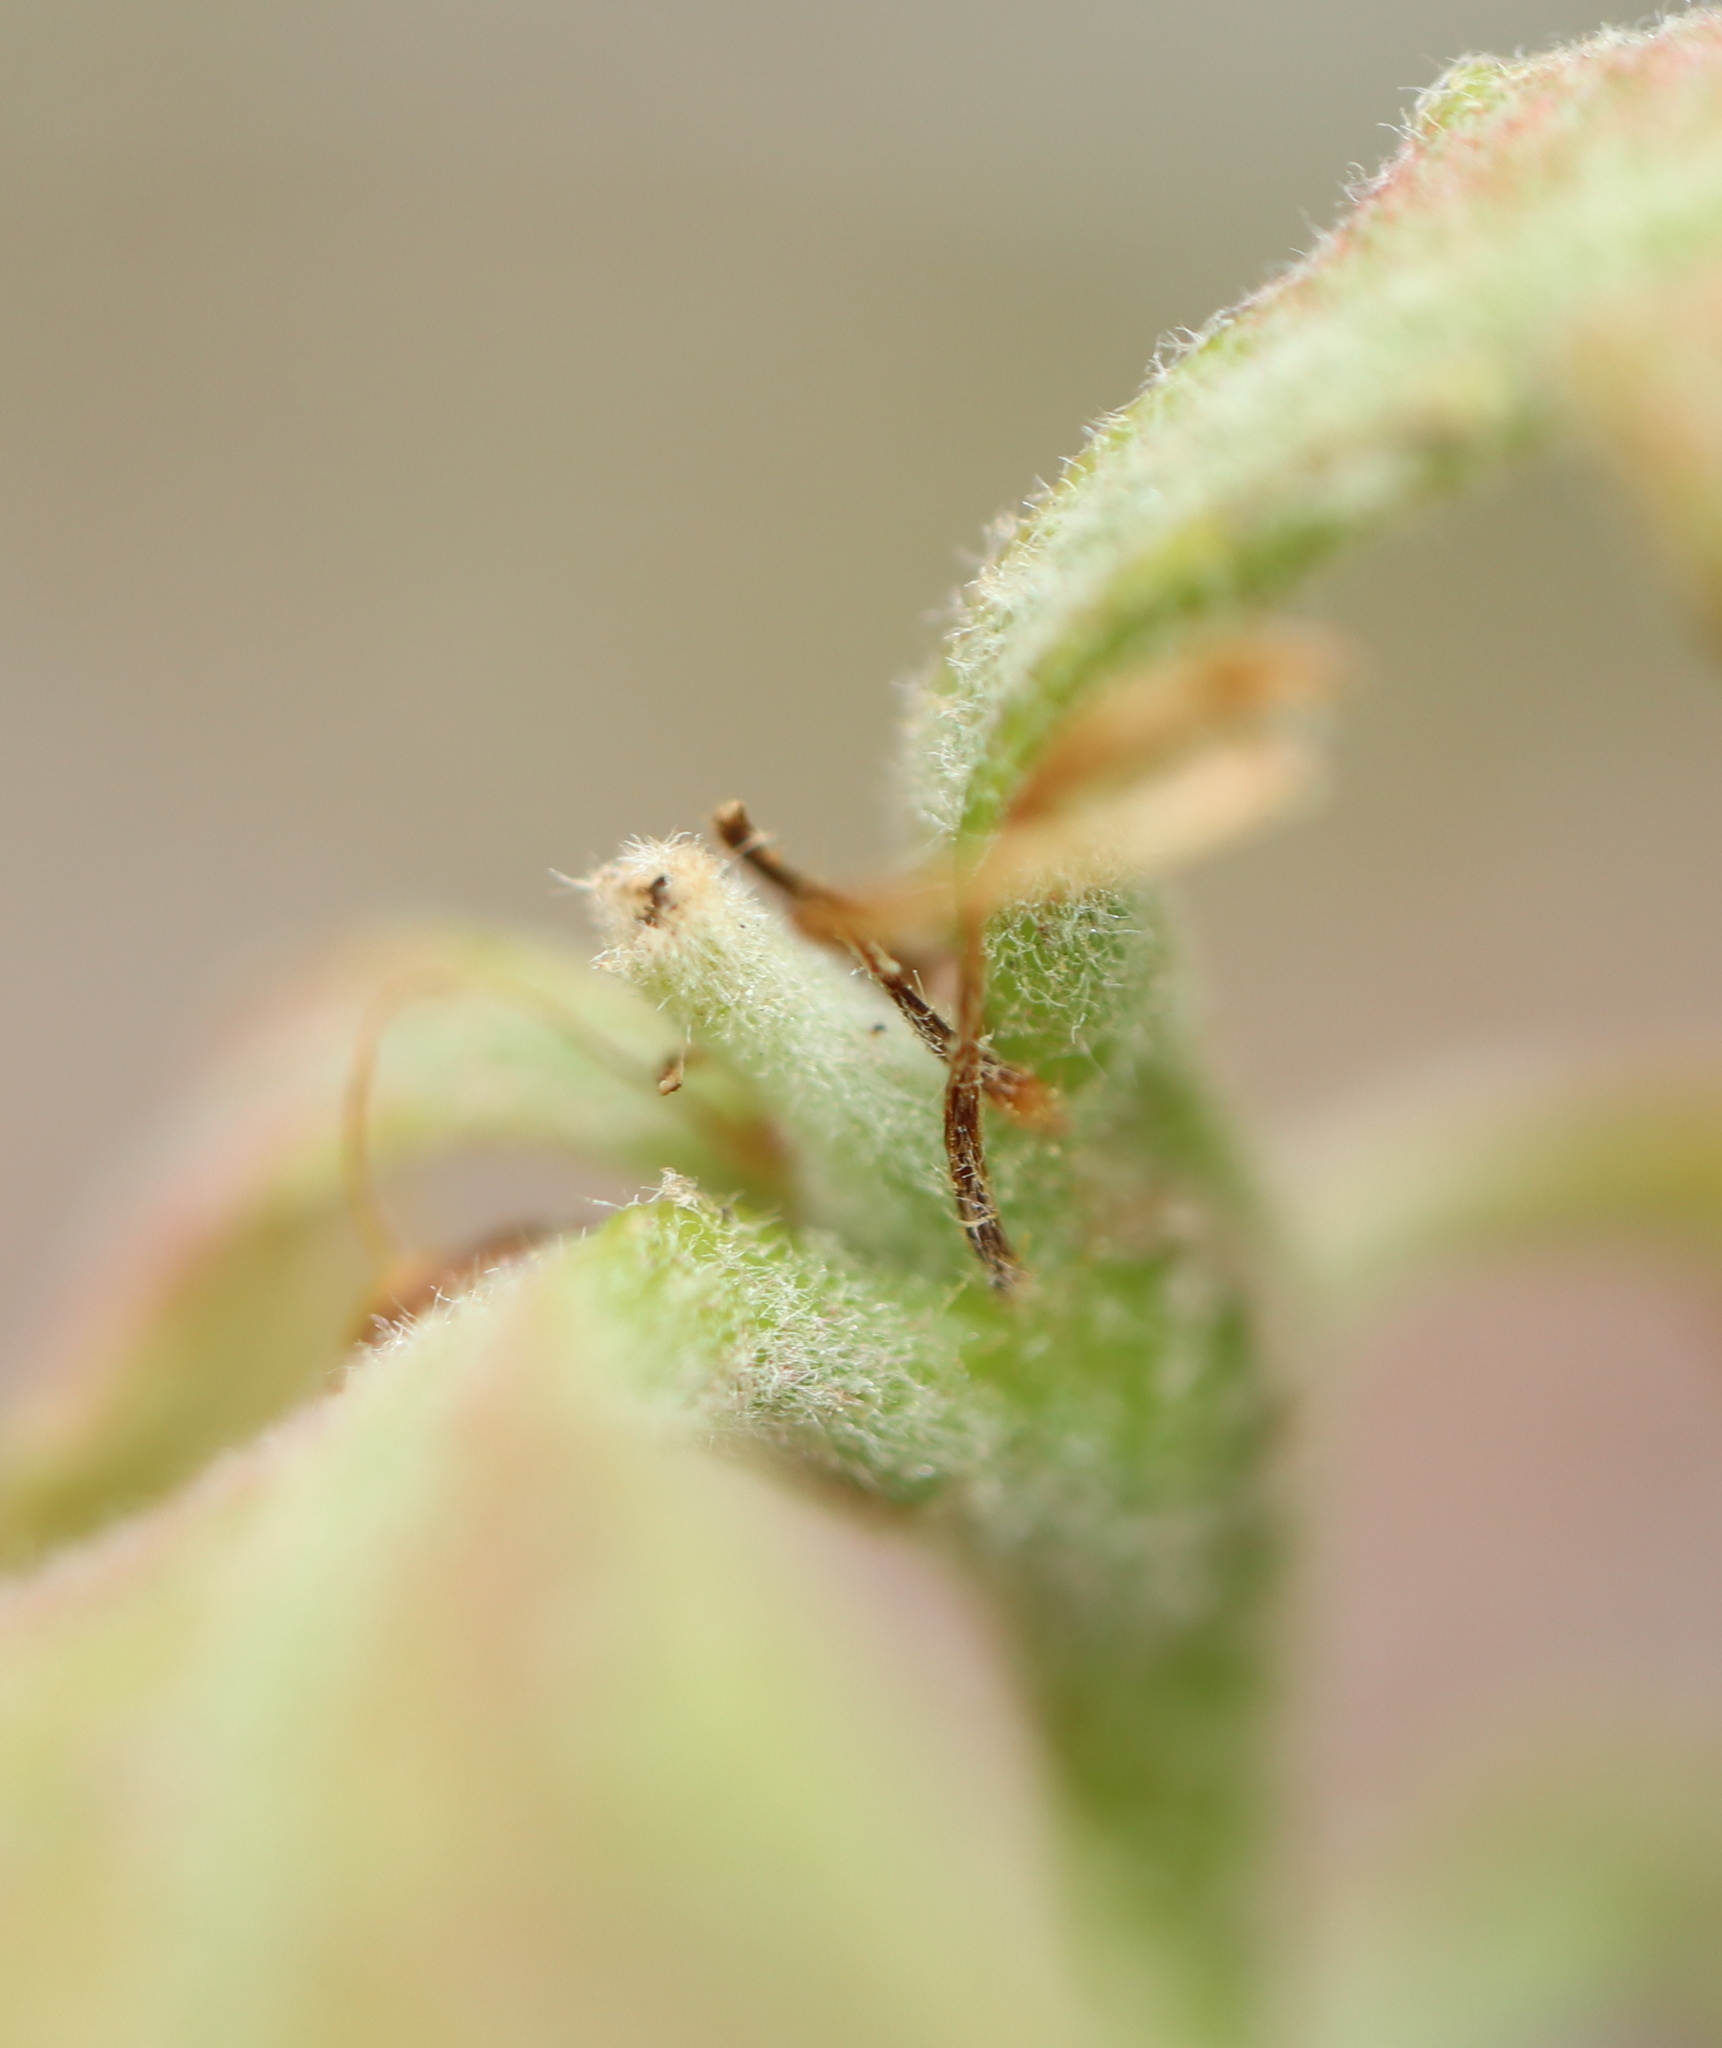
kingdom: Plantae
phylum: Tracheophyta
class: Magnoliopsida
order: Fagales
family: Fagaceae
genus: Quercus
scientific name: Quercus alba
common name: White oak
